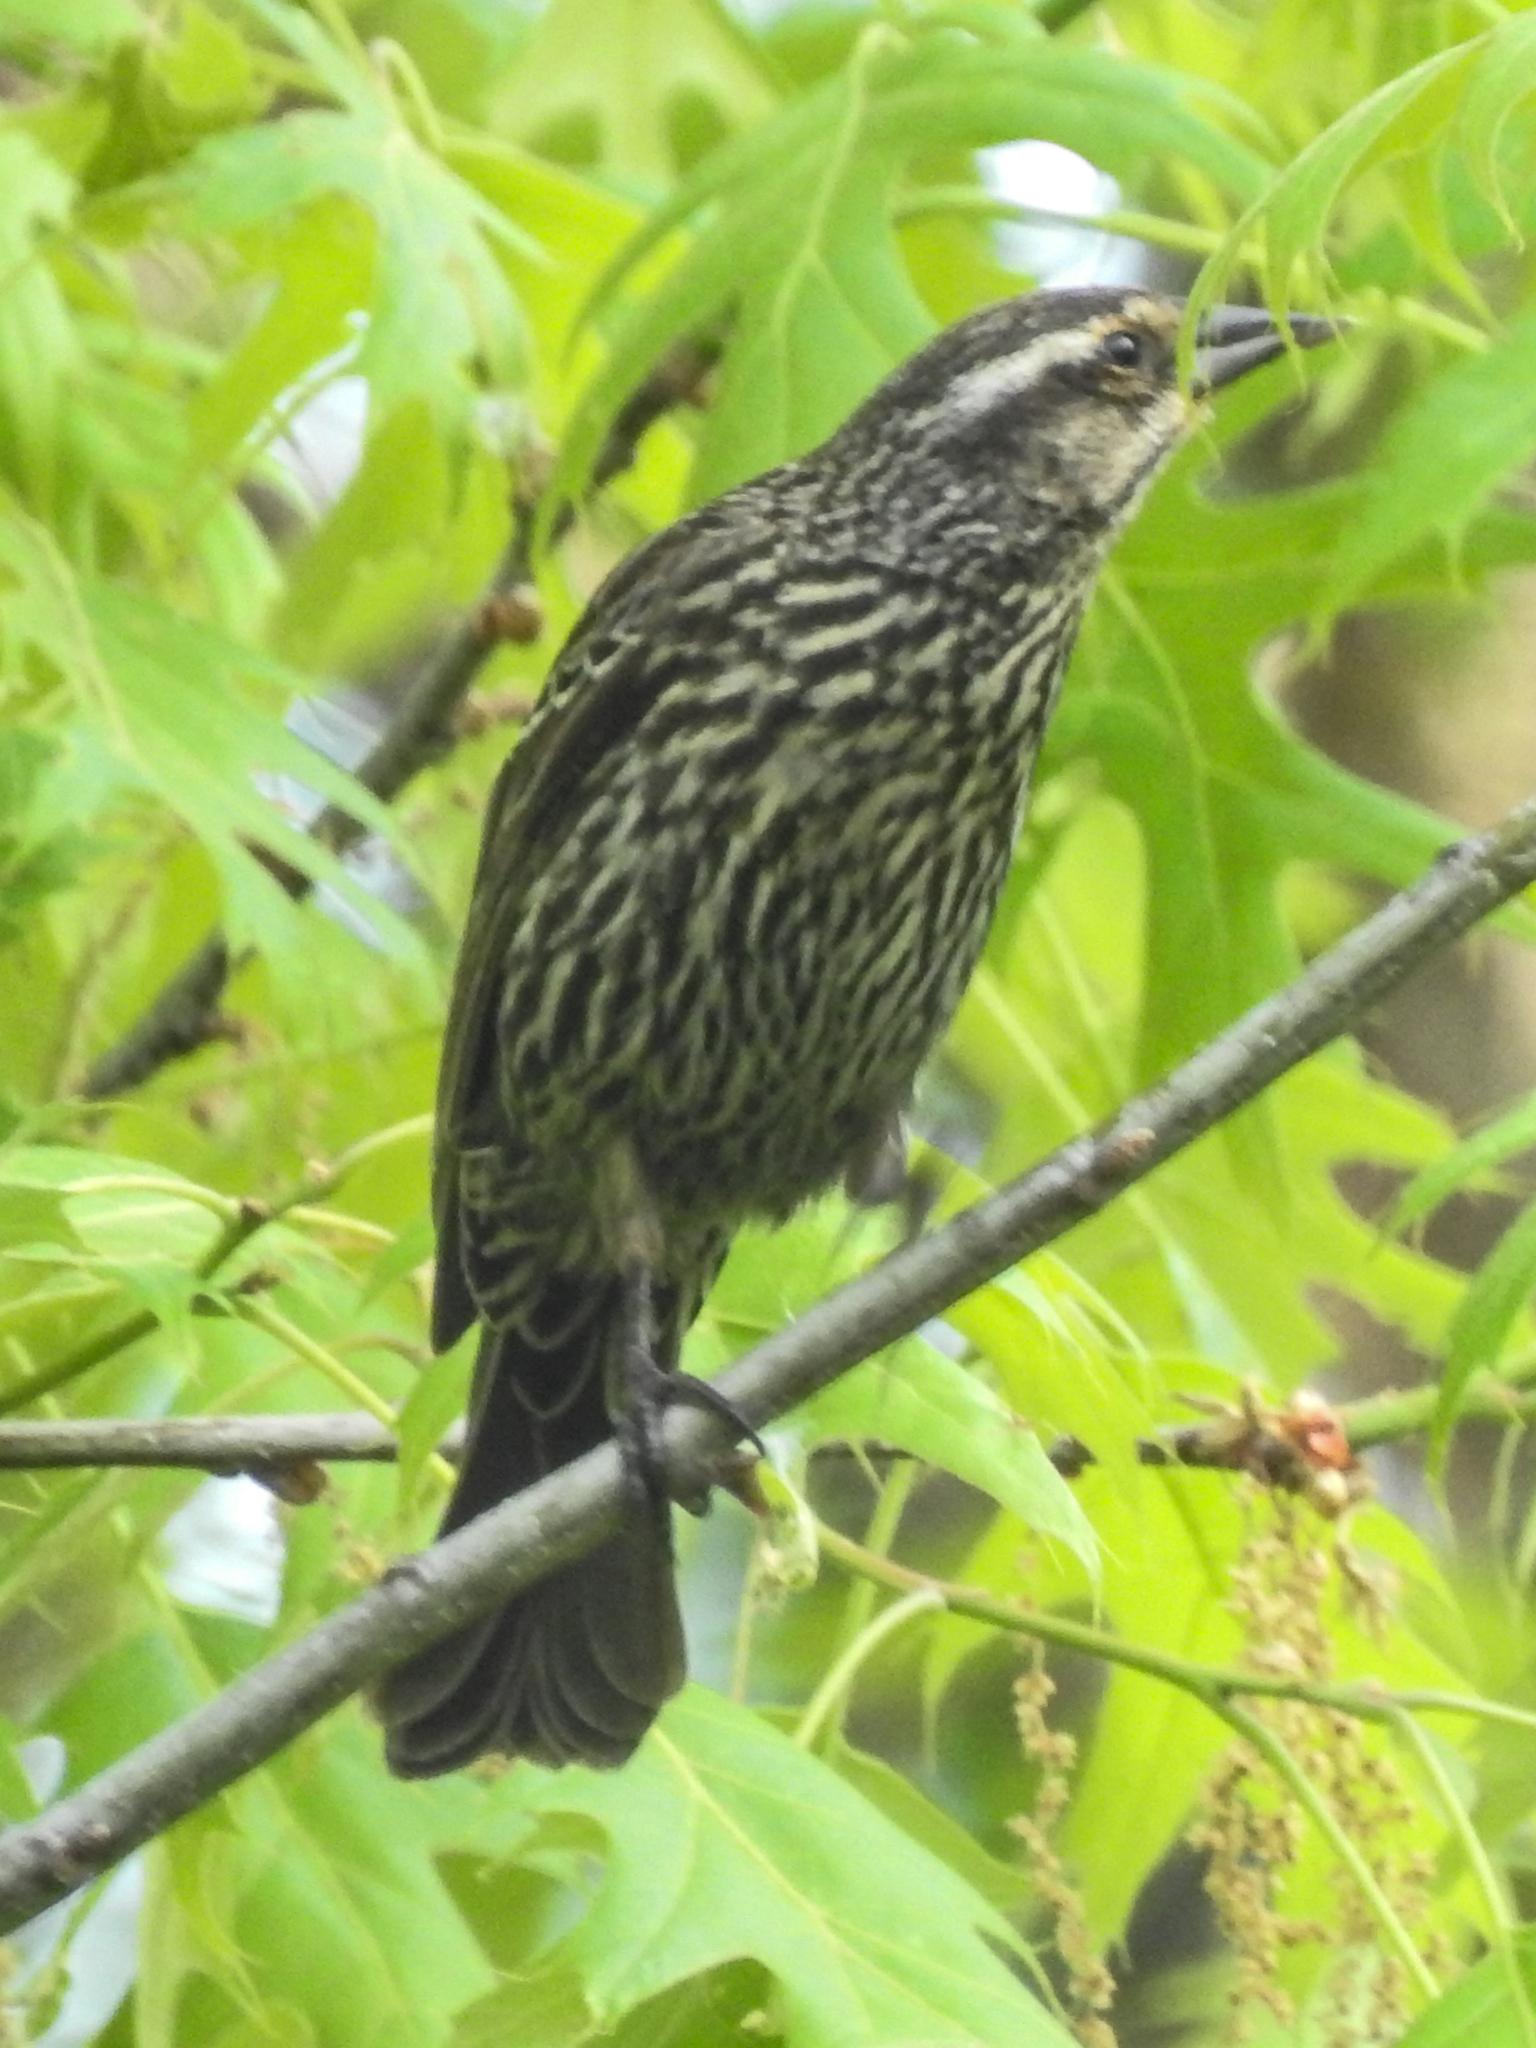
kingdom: Animalia
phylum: Chordata
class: Aves
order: Passeriformes
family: Icteridae
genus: Agelaius
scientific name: Agelaius phoeniceus
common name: Red-winged blackbird
